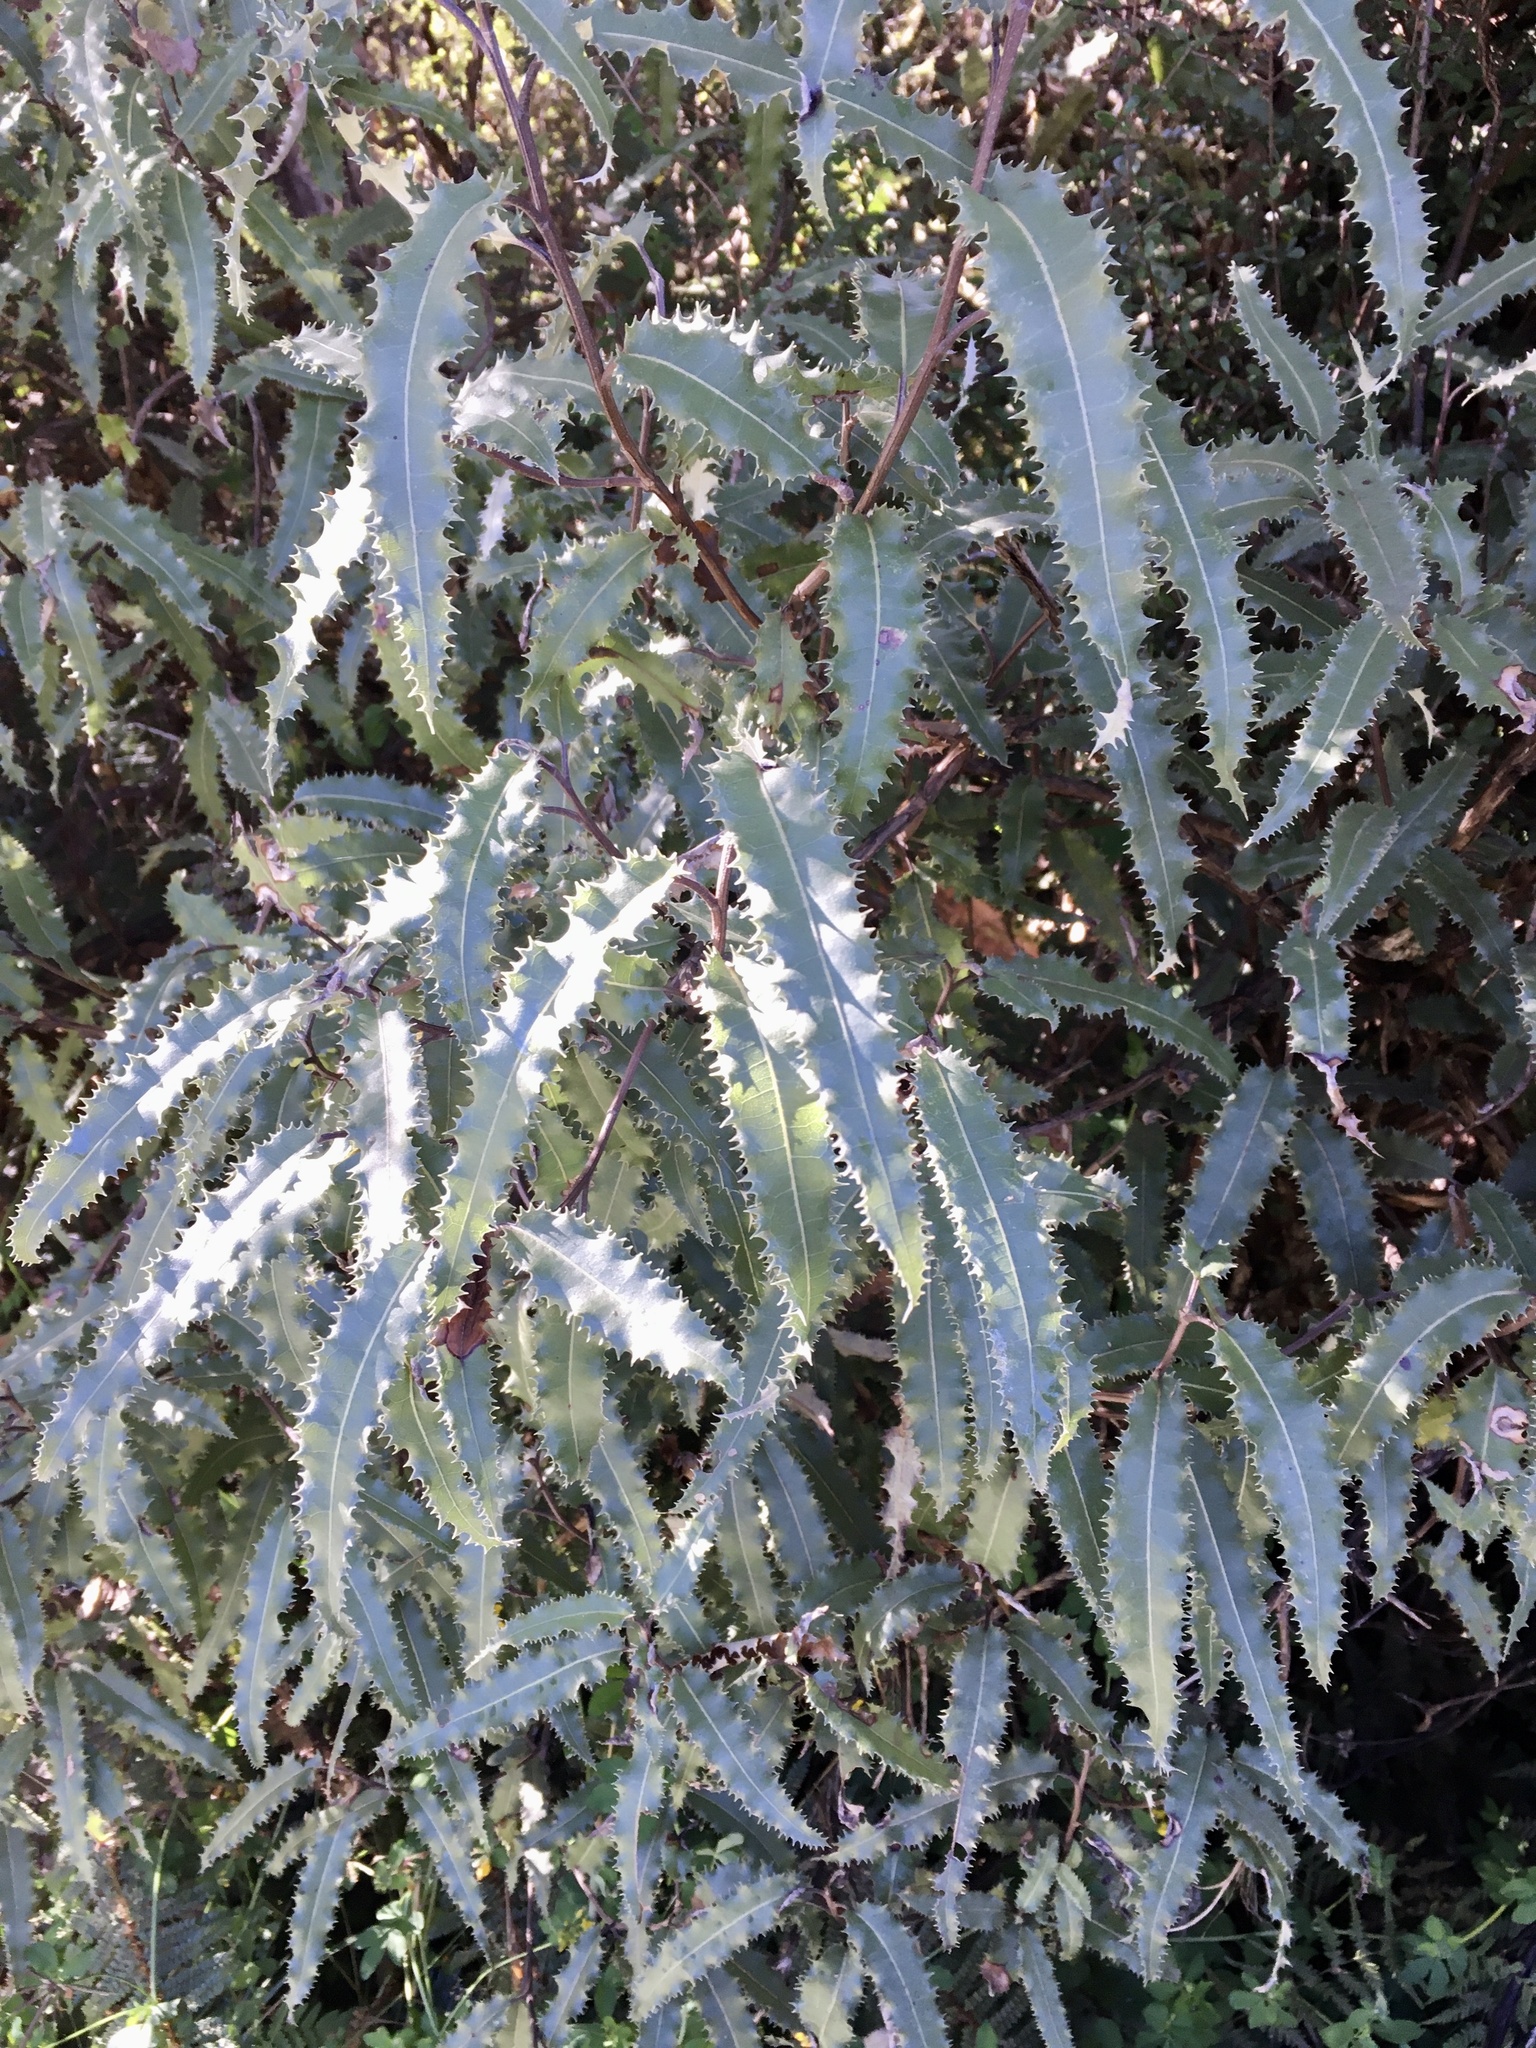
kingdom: Plantae
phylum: Tracheophyta
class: Magnoliopsida
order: Asterales
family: Asteraceae
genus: Olearia
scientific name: Olearia ilicifolia
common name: Maori-holly
